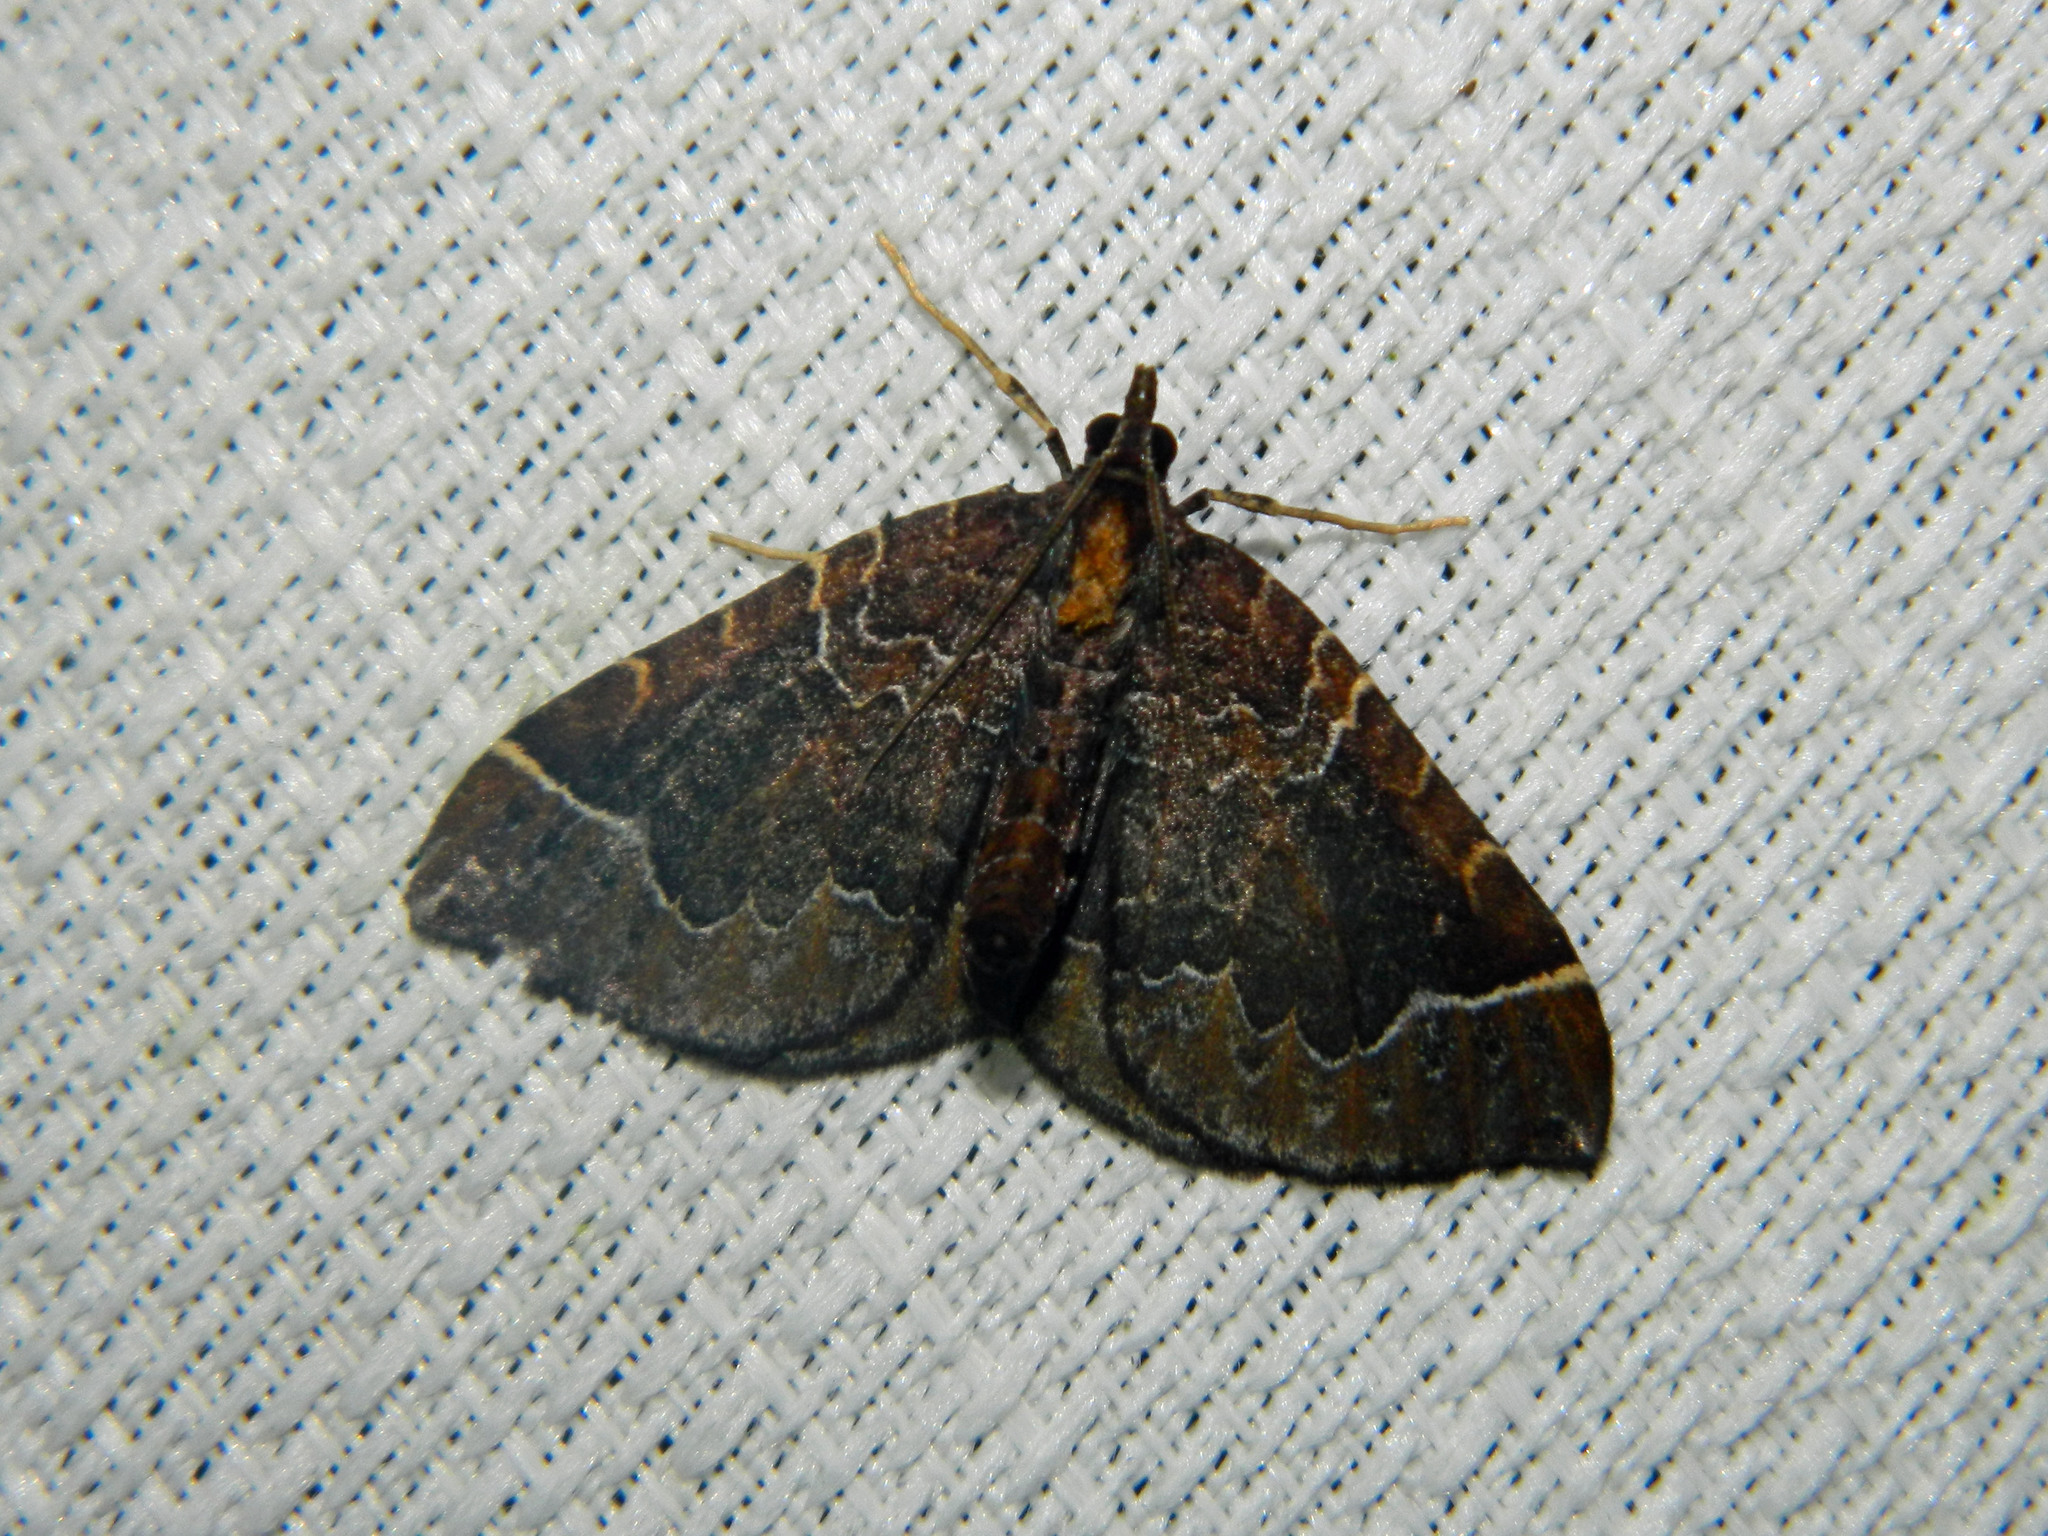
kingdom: Animalia
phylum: Arthropoda
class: Insecta
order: Lepidoptera
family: Geometridae
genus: Eulithis
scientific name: Eulithis flavibrunneata
